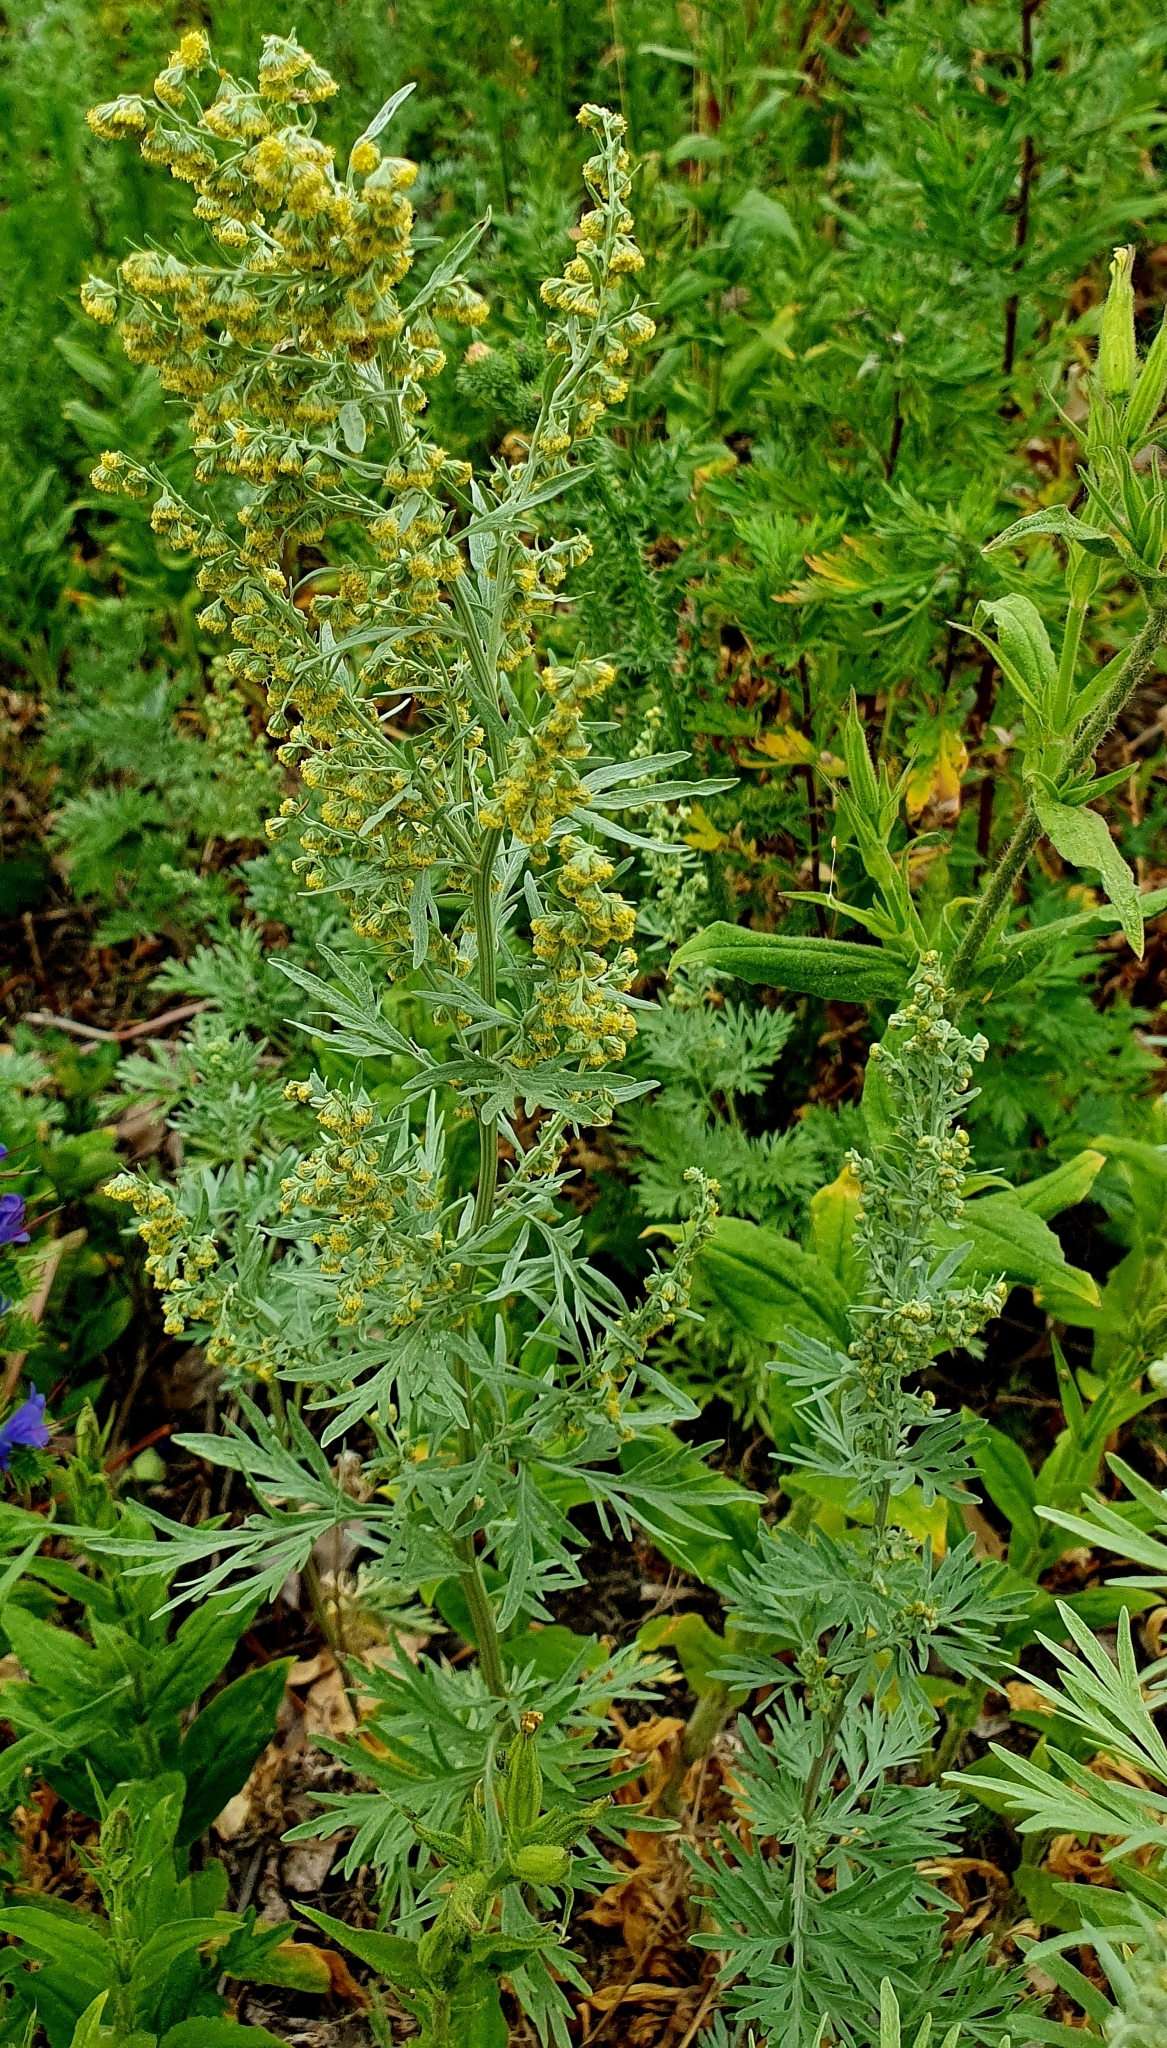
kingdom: Plantae
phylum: Tracheophyta
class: Magnoliopsida
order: Asterales
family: Asteraceae
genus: Artemisia
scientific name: Artemisia absinthium
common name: Wormwood
